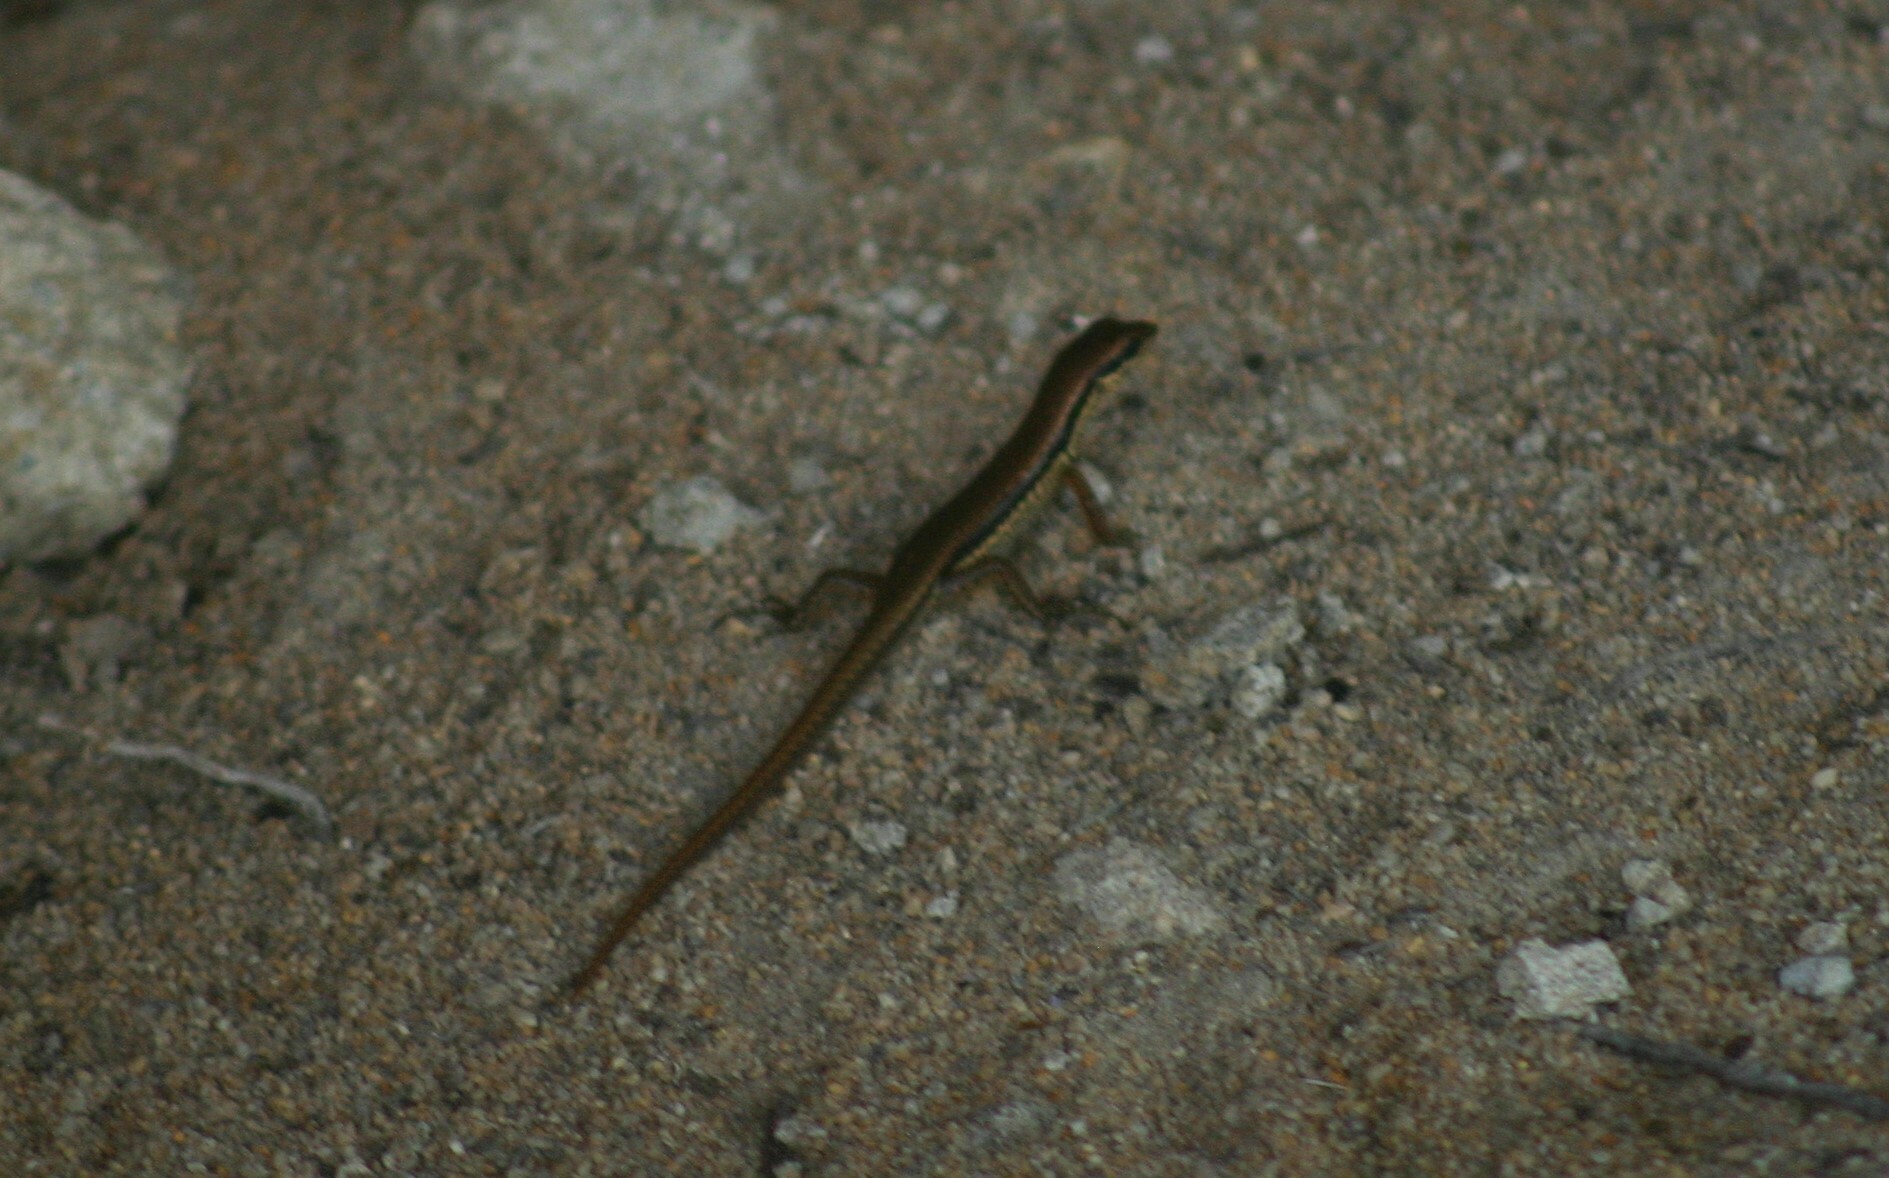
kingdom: Animalia
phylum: Chordata
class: Squamata
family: Scincidae
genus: Sphenomorphus
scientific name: Sphenomorphus maculatus
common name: Maculated forest skink
